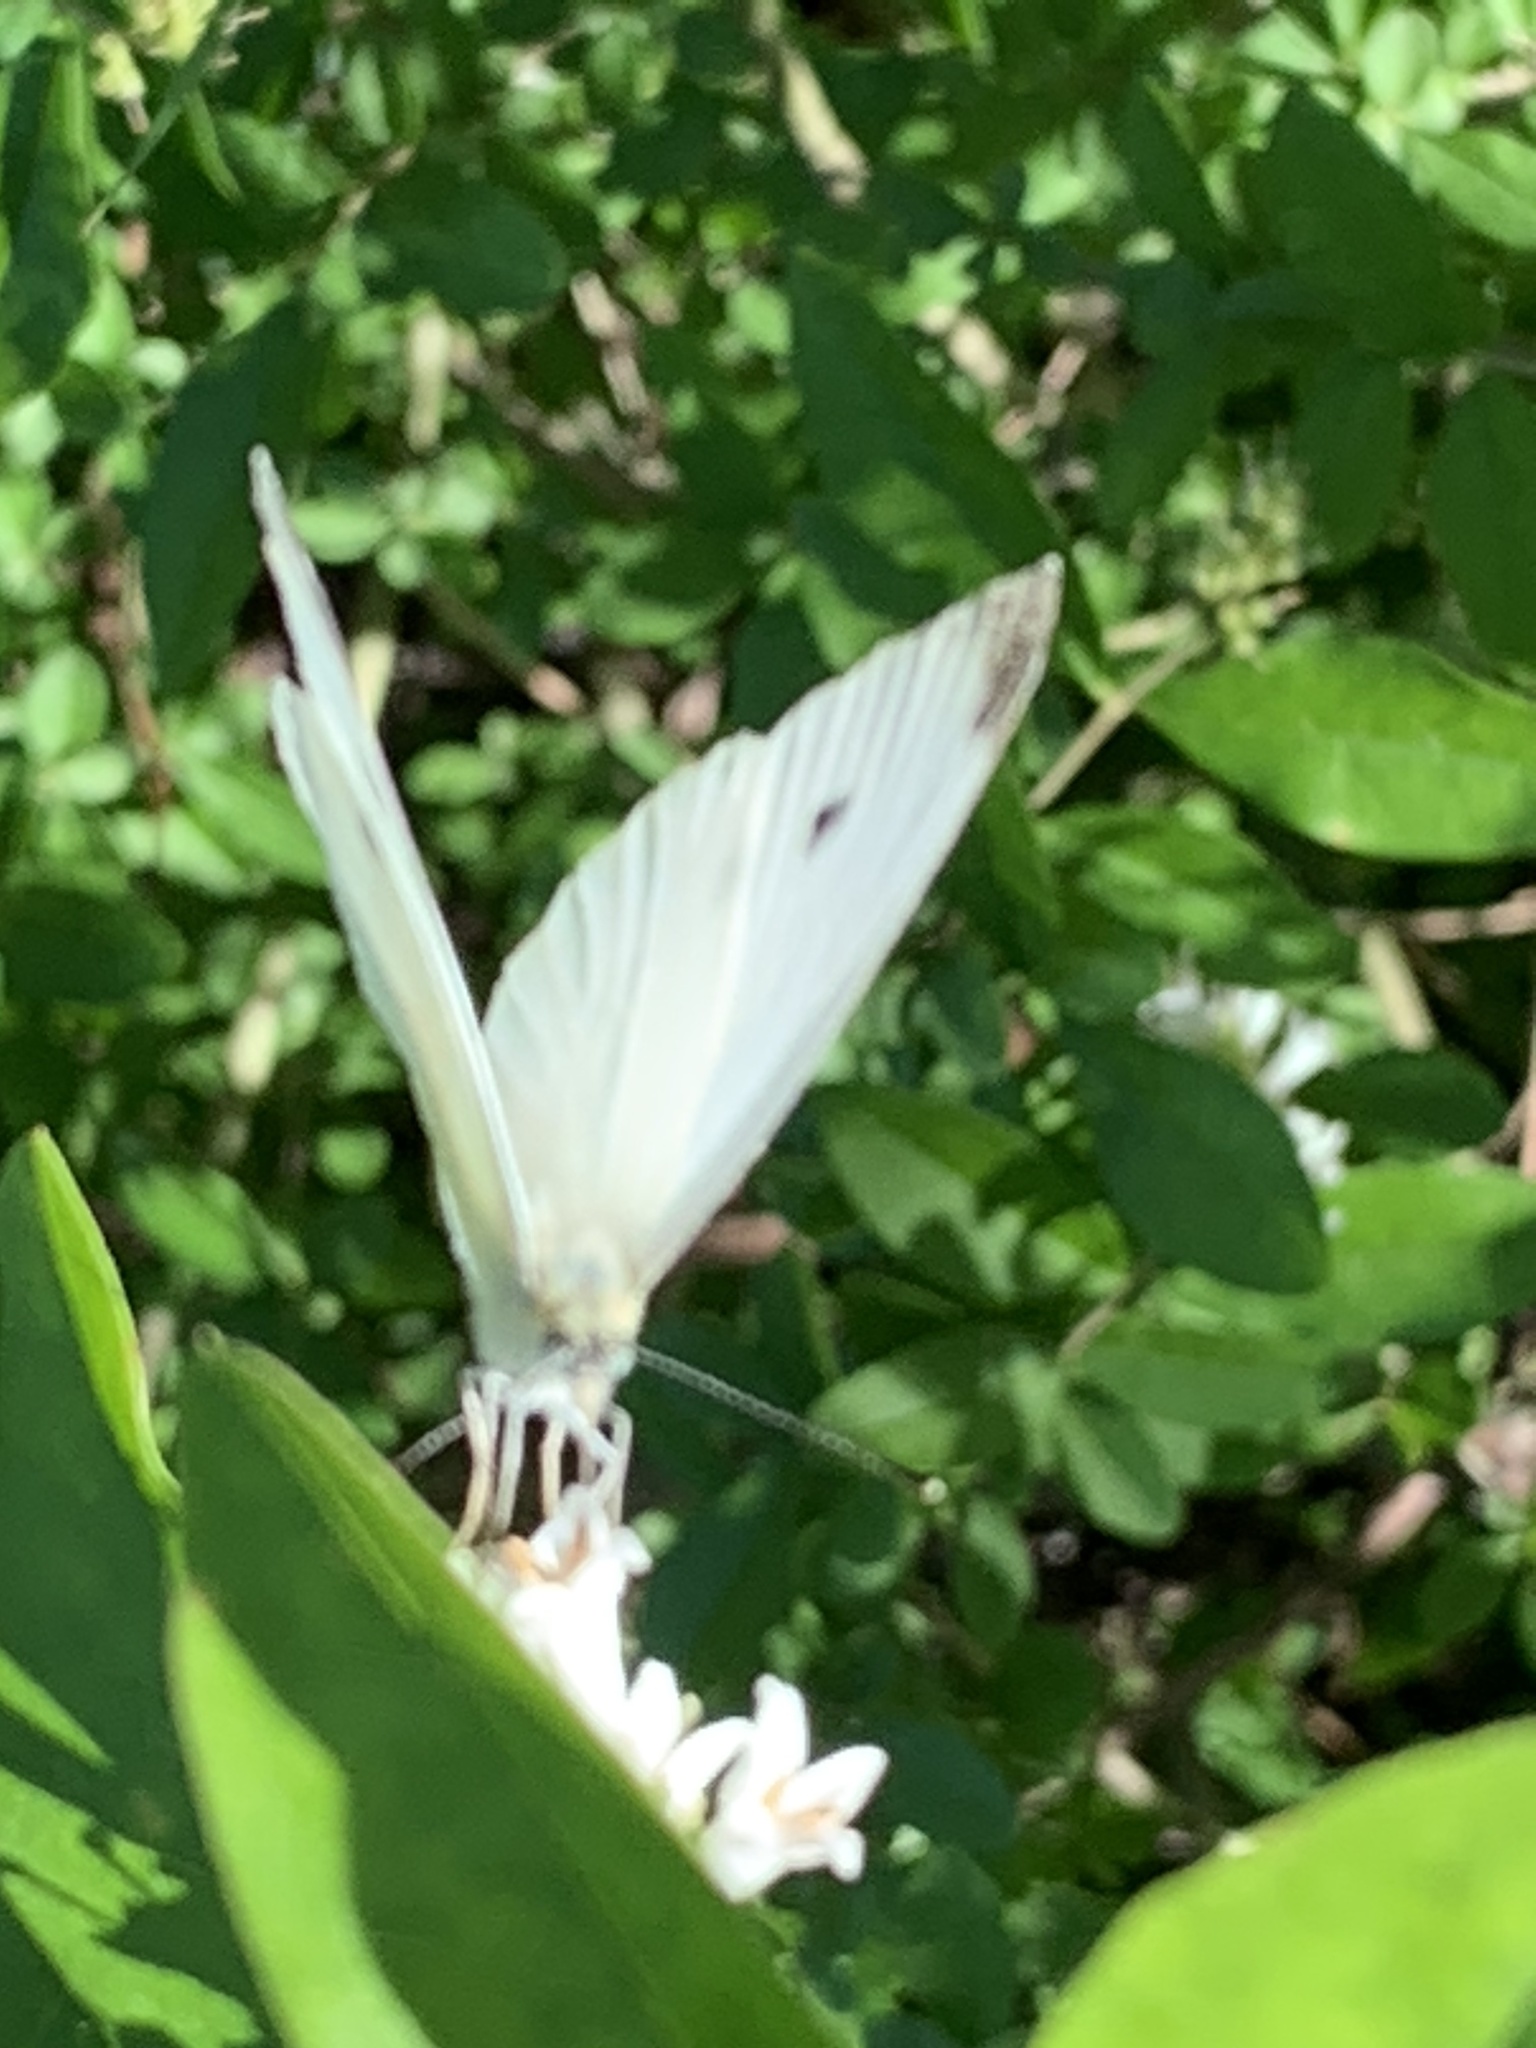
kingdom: Animalia
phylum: Arthropoda
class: Insecta
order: Lepidoptera
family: Pieridae
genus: Pieris
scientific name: Pieris rapae
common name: Small white
